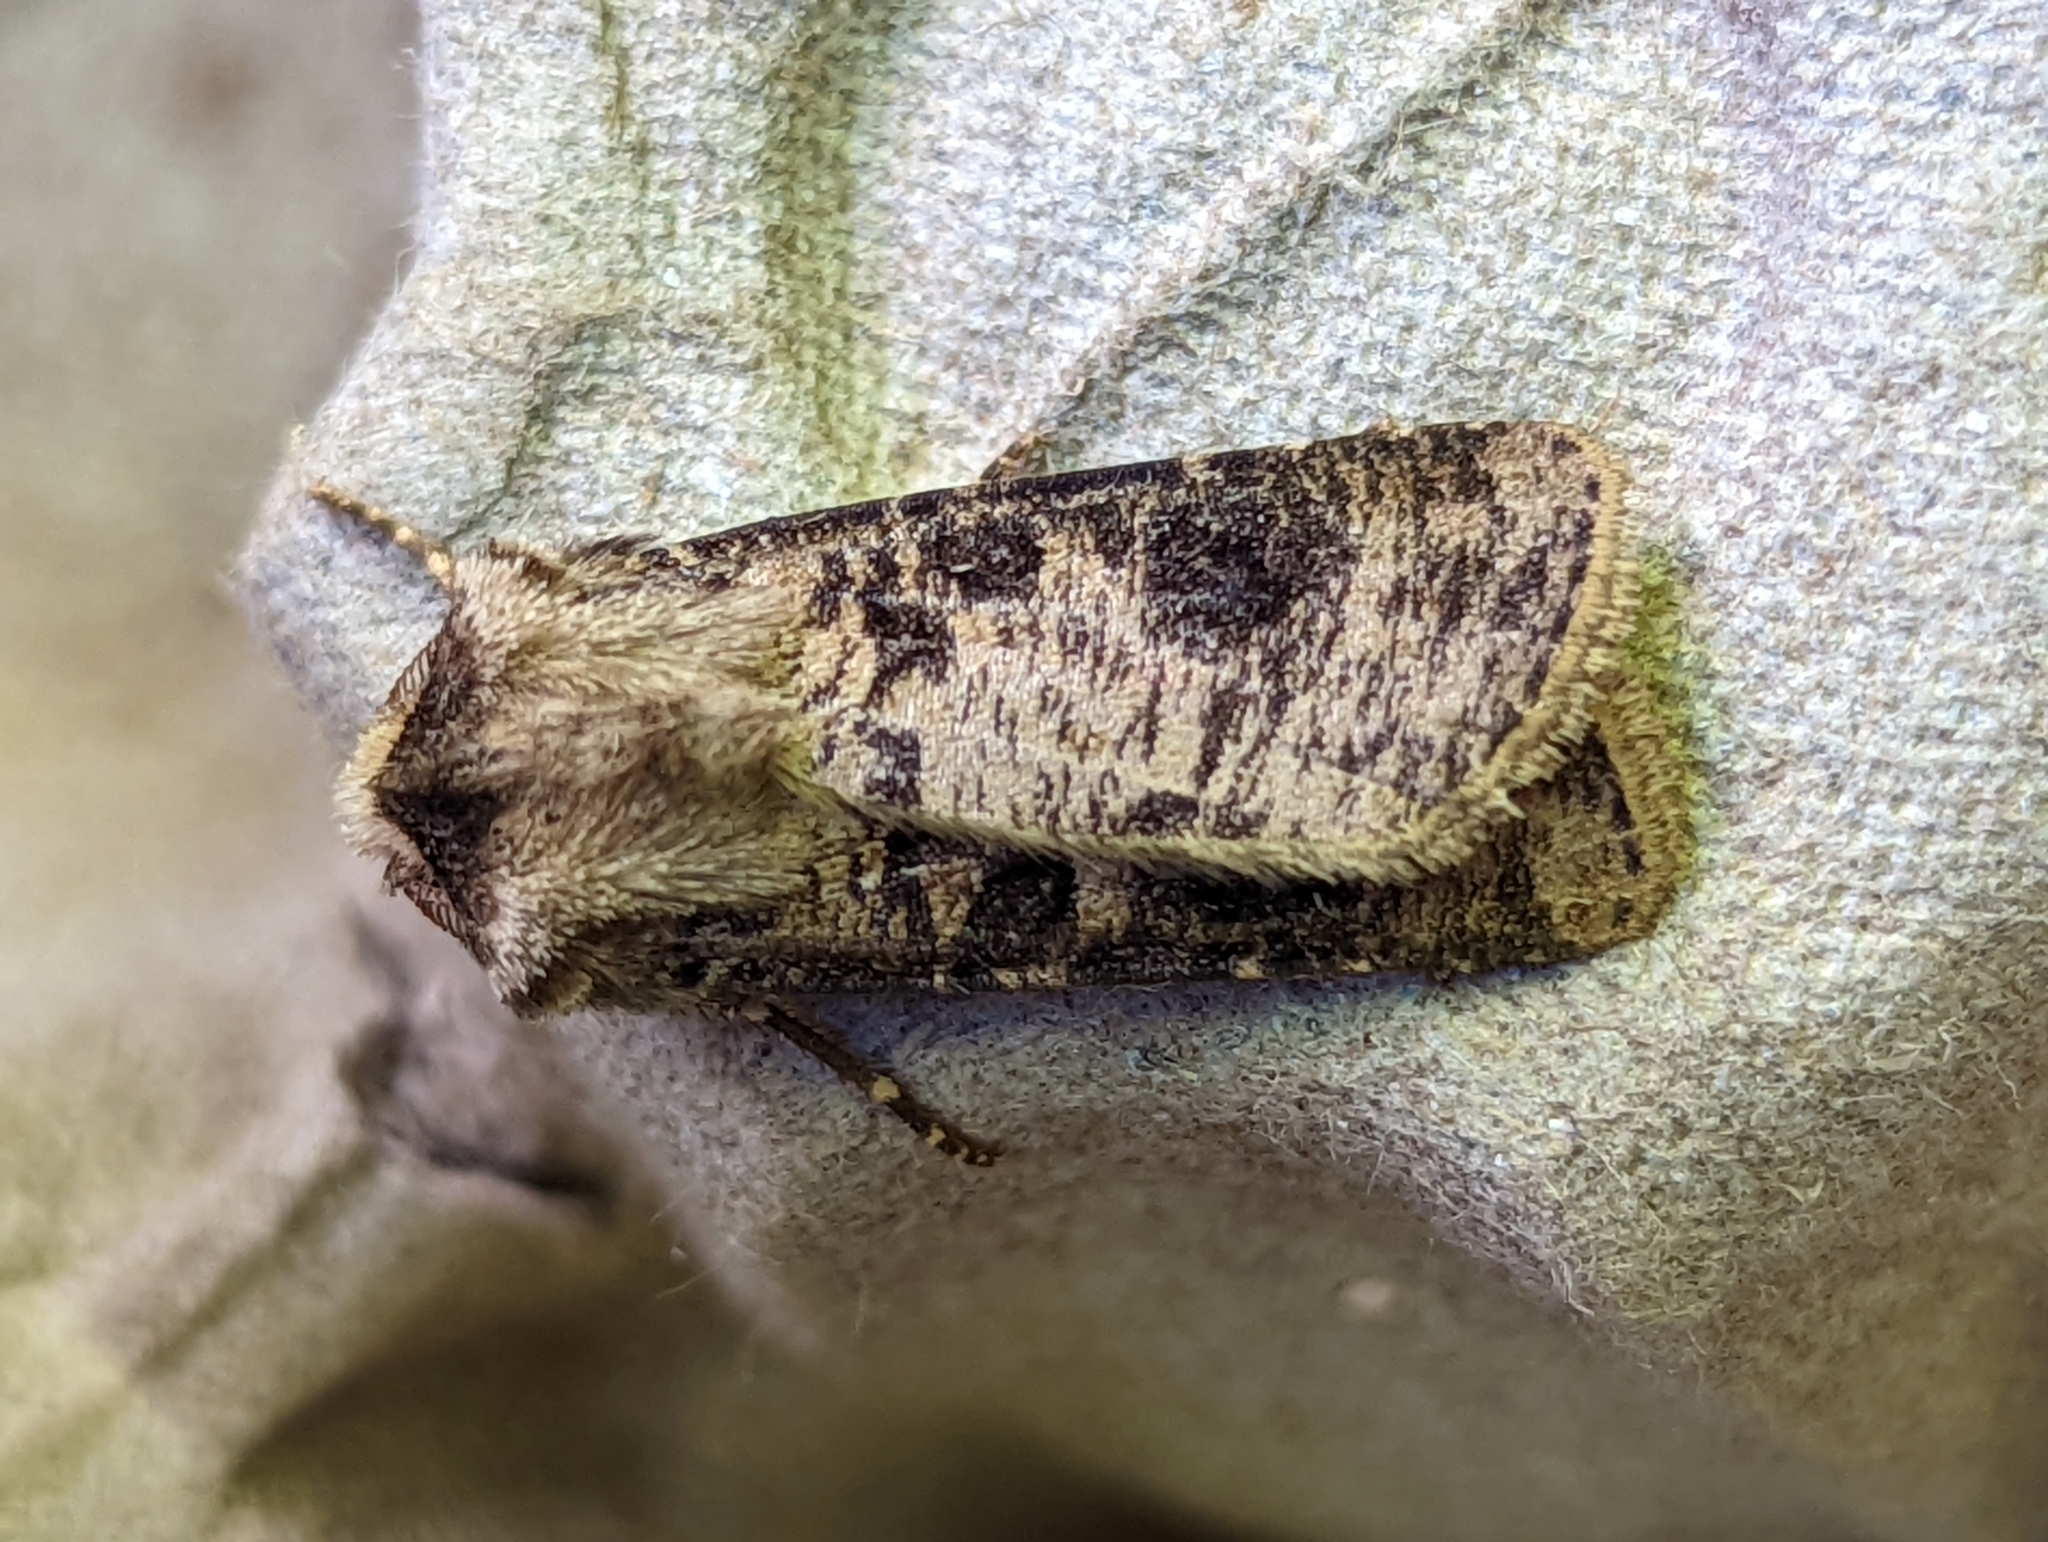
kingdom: Animalia
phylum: Arthropoda
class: Insecta
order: Lepidoptera
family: Noctuidae
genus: Agrotis
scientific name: Agrotis clavis
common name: Heart and club
